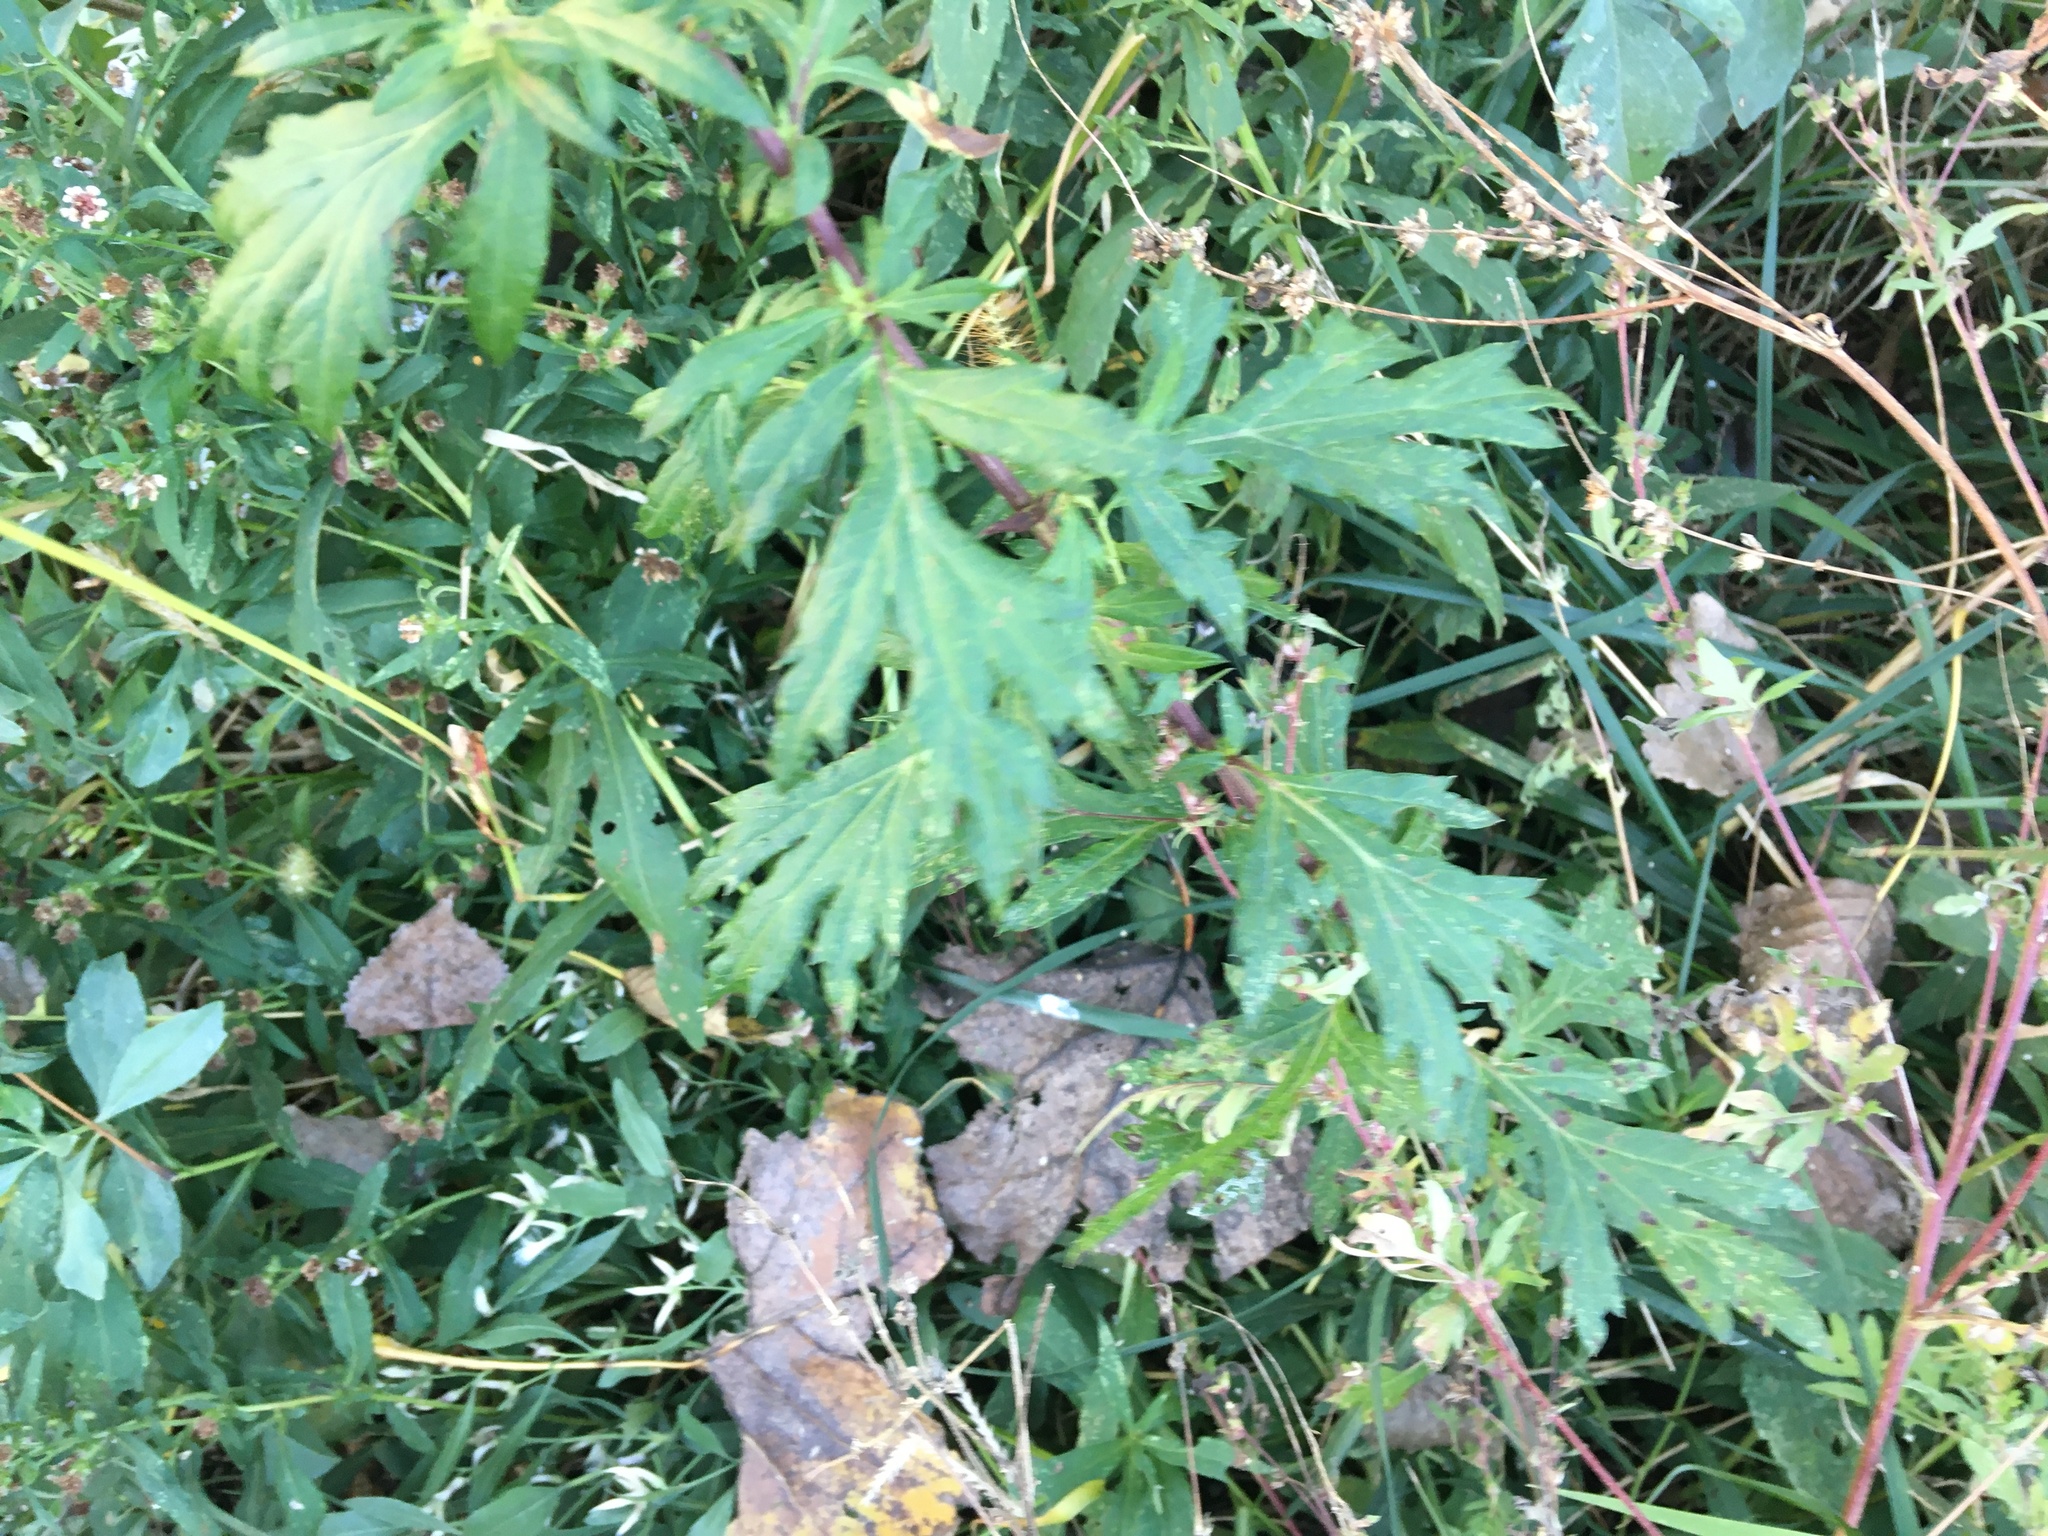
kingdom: Plantae
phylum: Tracheophyta
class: Magnoliopsida
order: Asterales
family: Asteraceae
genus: Artemisia
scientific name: Artemisia vulgaris
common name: Mugwort
